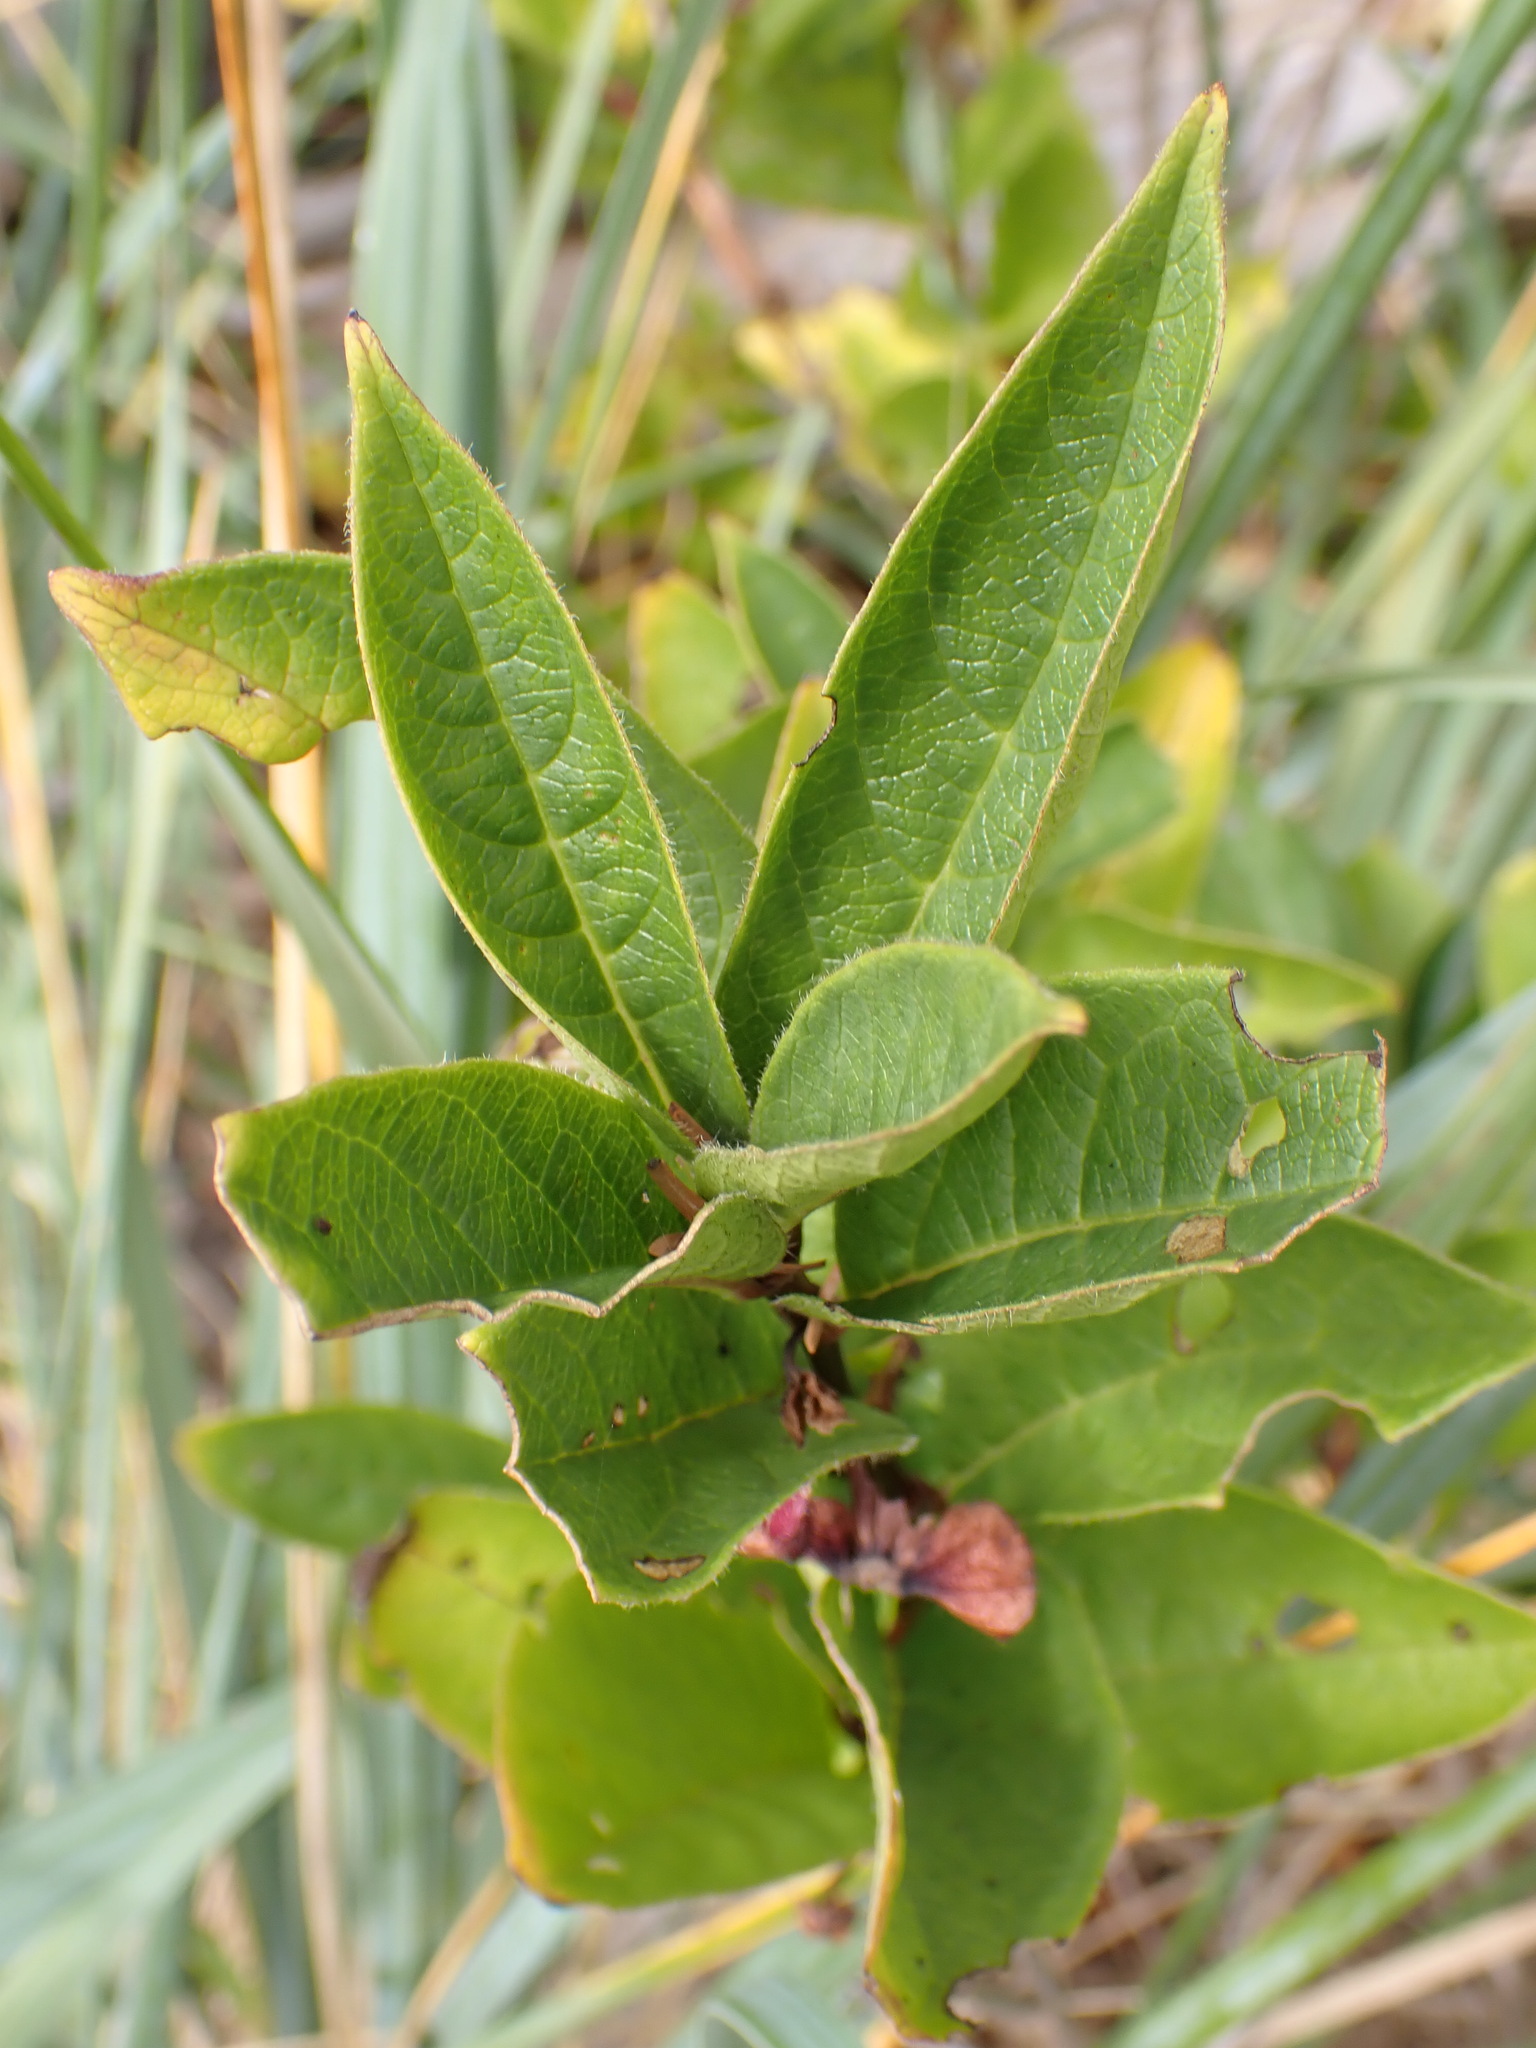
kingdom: Plantae
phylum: Tracheophyta
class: Magnoliopsida
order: Dipsacales
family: Caprifoliaceae
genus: Lonicera
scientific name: Lonicera involucrata
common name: Californian honeysuckle
